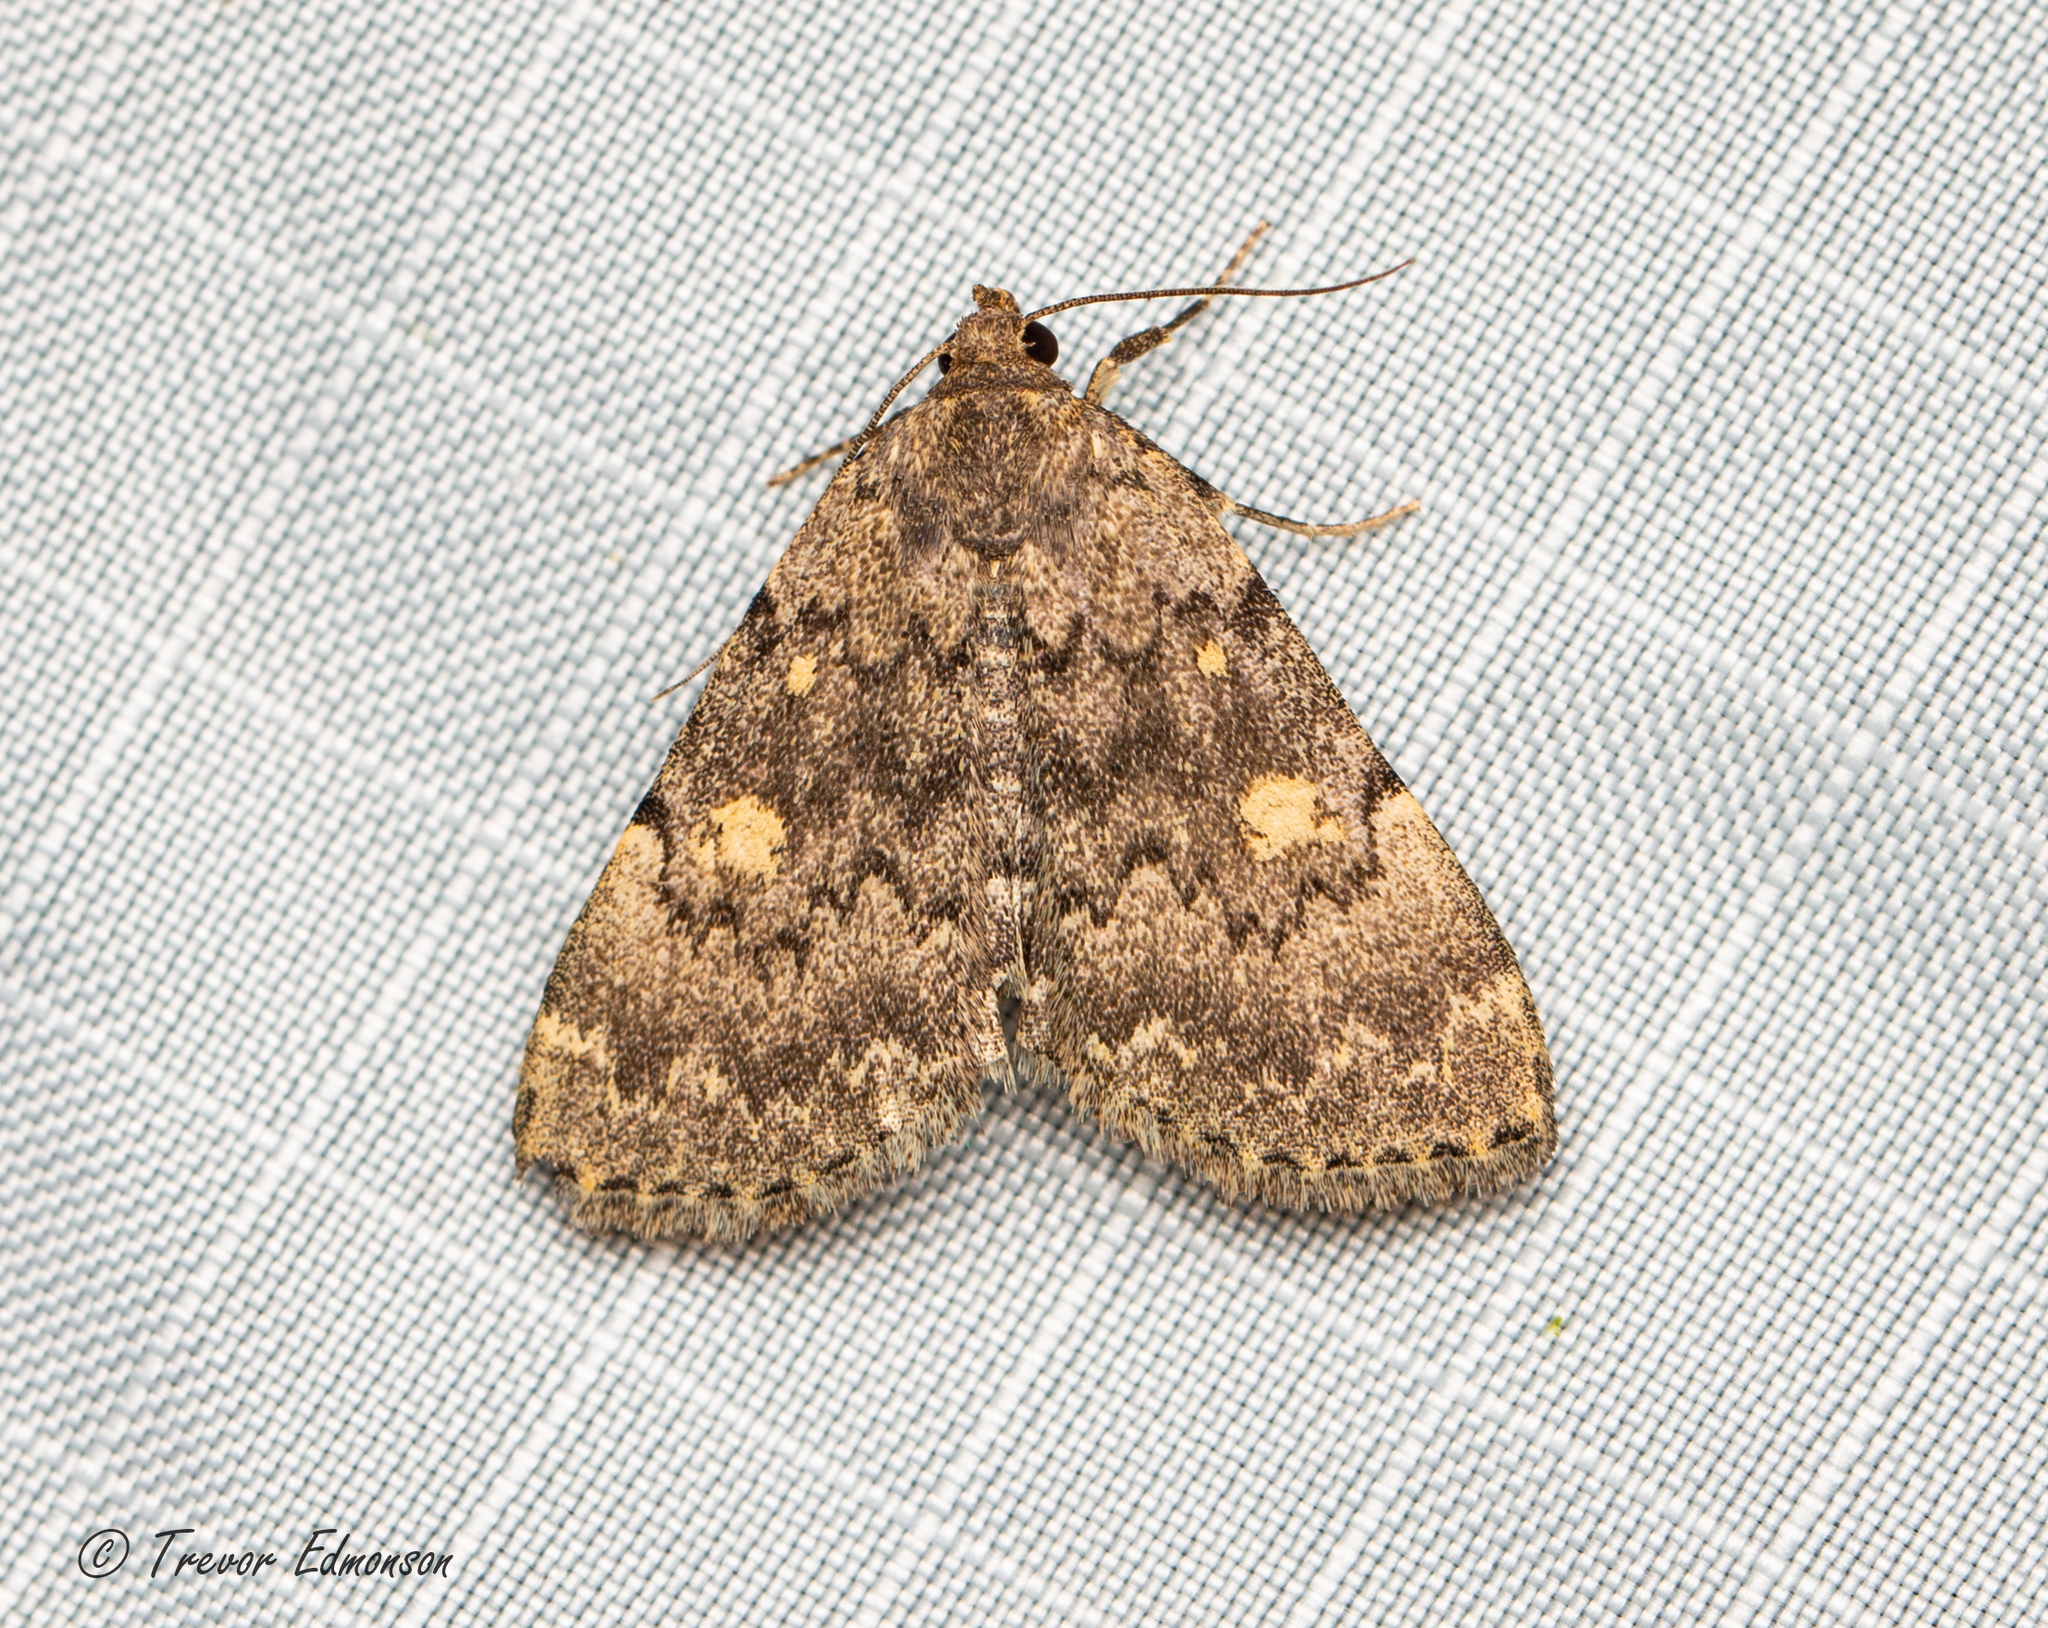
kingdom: Animalia
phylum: Arthropoda
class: Insecta
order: Lepidoptera
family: Erebidae
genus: Idia
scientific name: Idia aemula
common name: Common idia moth
